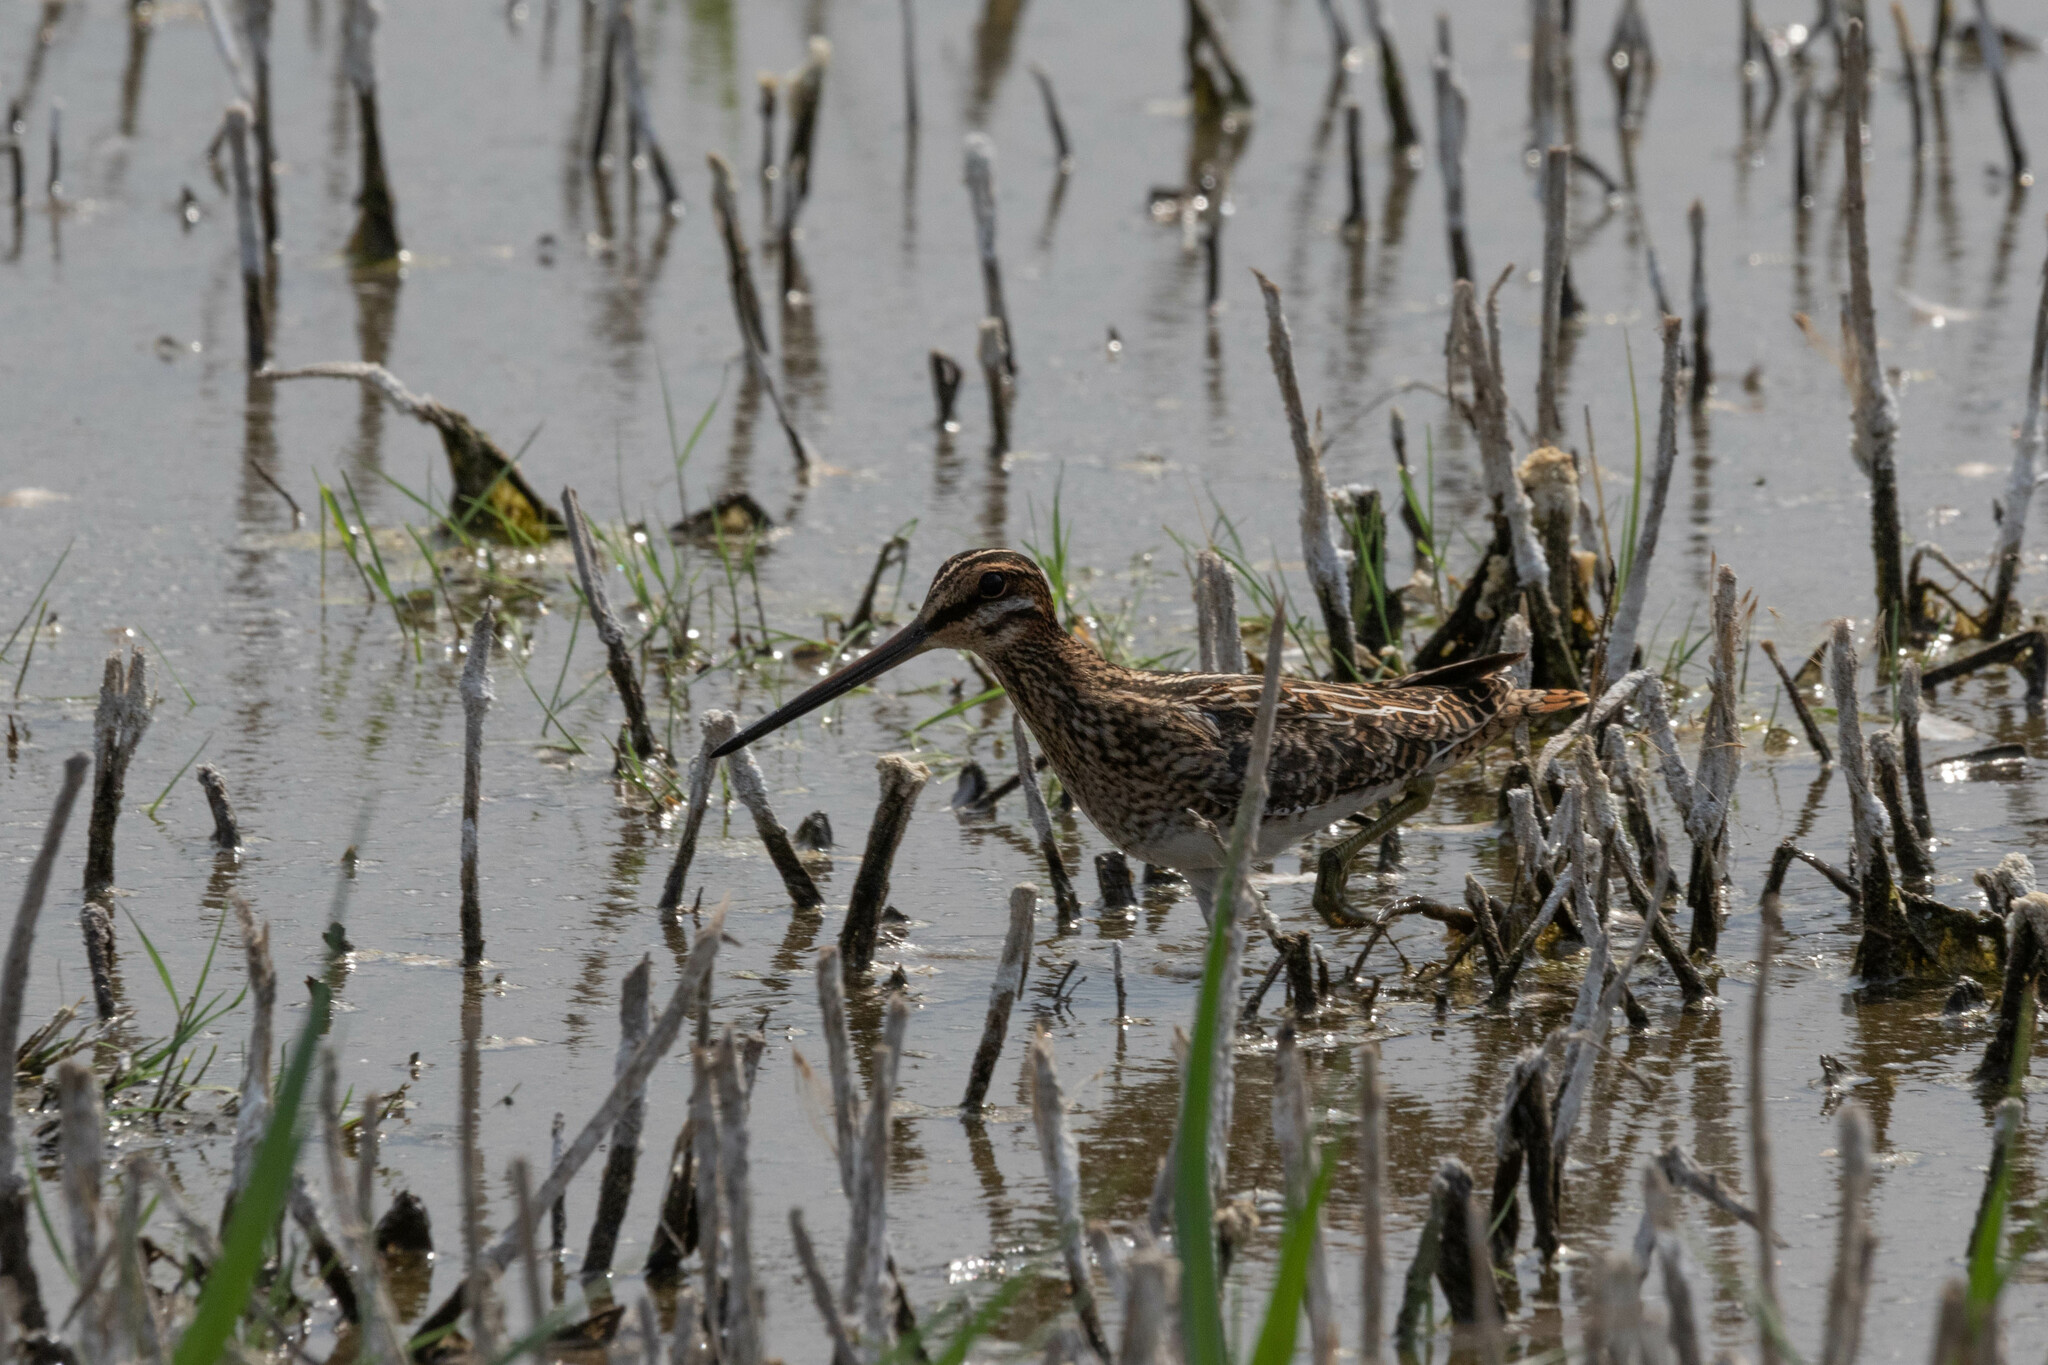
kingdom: Animalia
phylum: Chordata
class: Aves
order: Charadriiformes
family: Scolopacidae
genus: Gallinago
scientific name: Gallinago delicata
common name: Wilson's snipe
